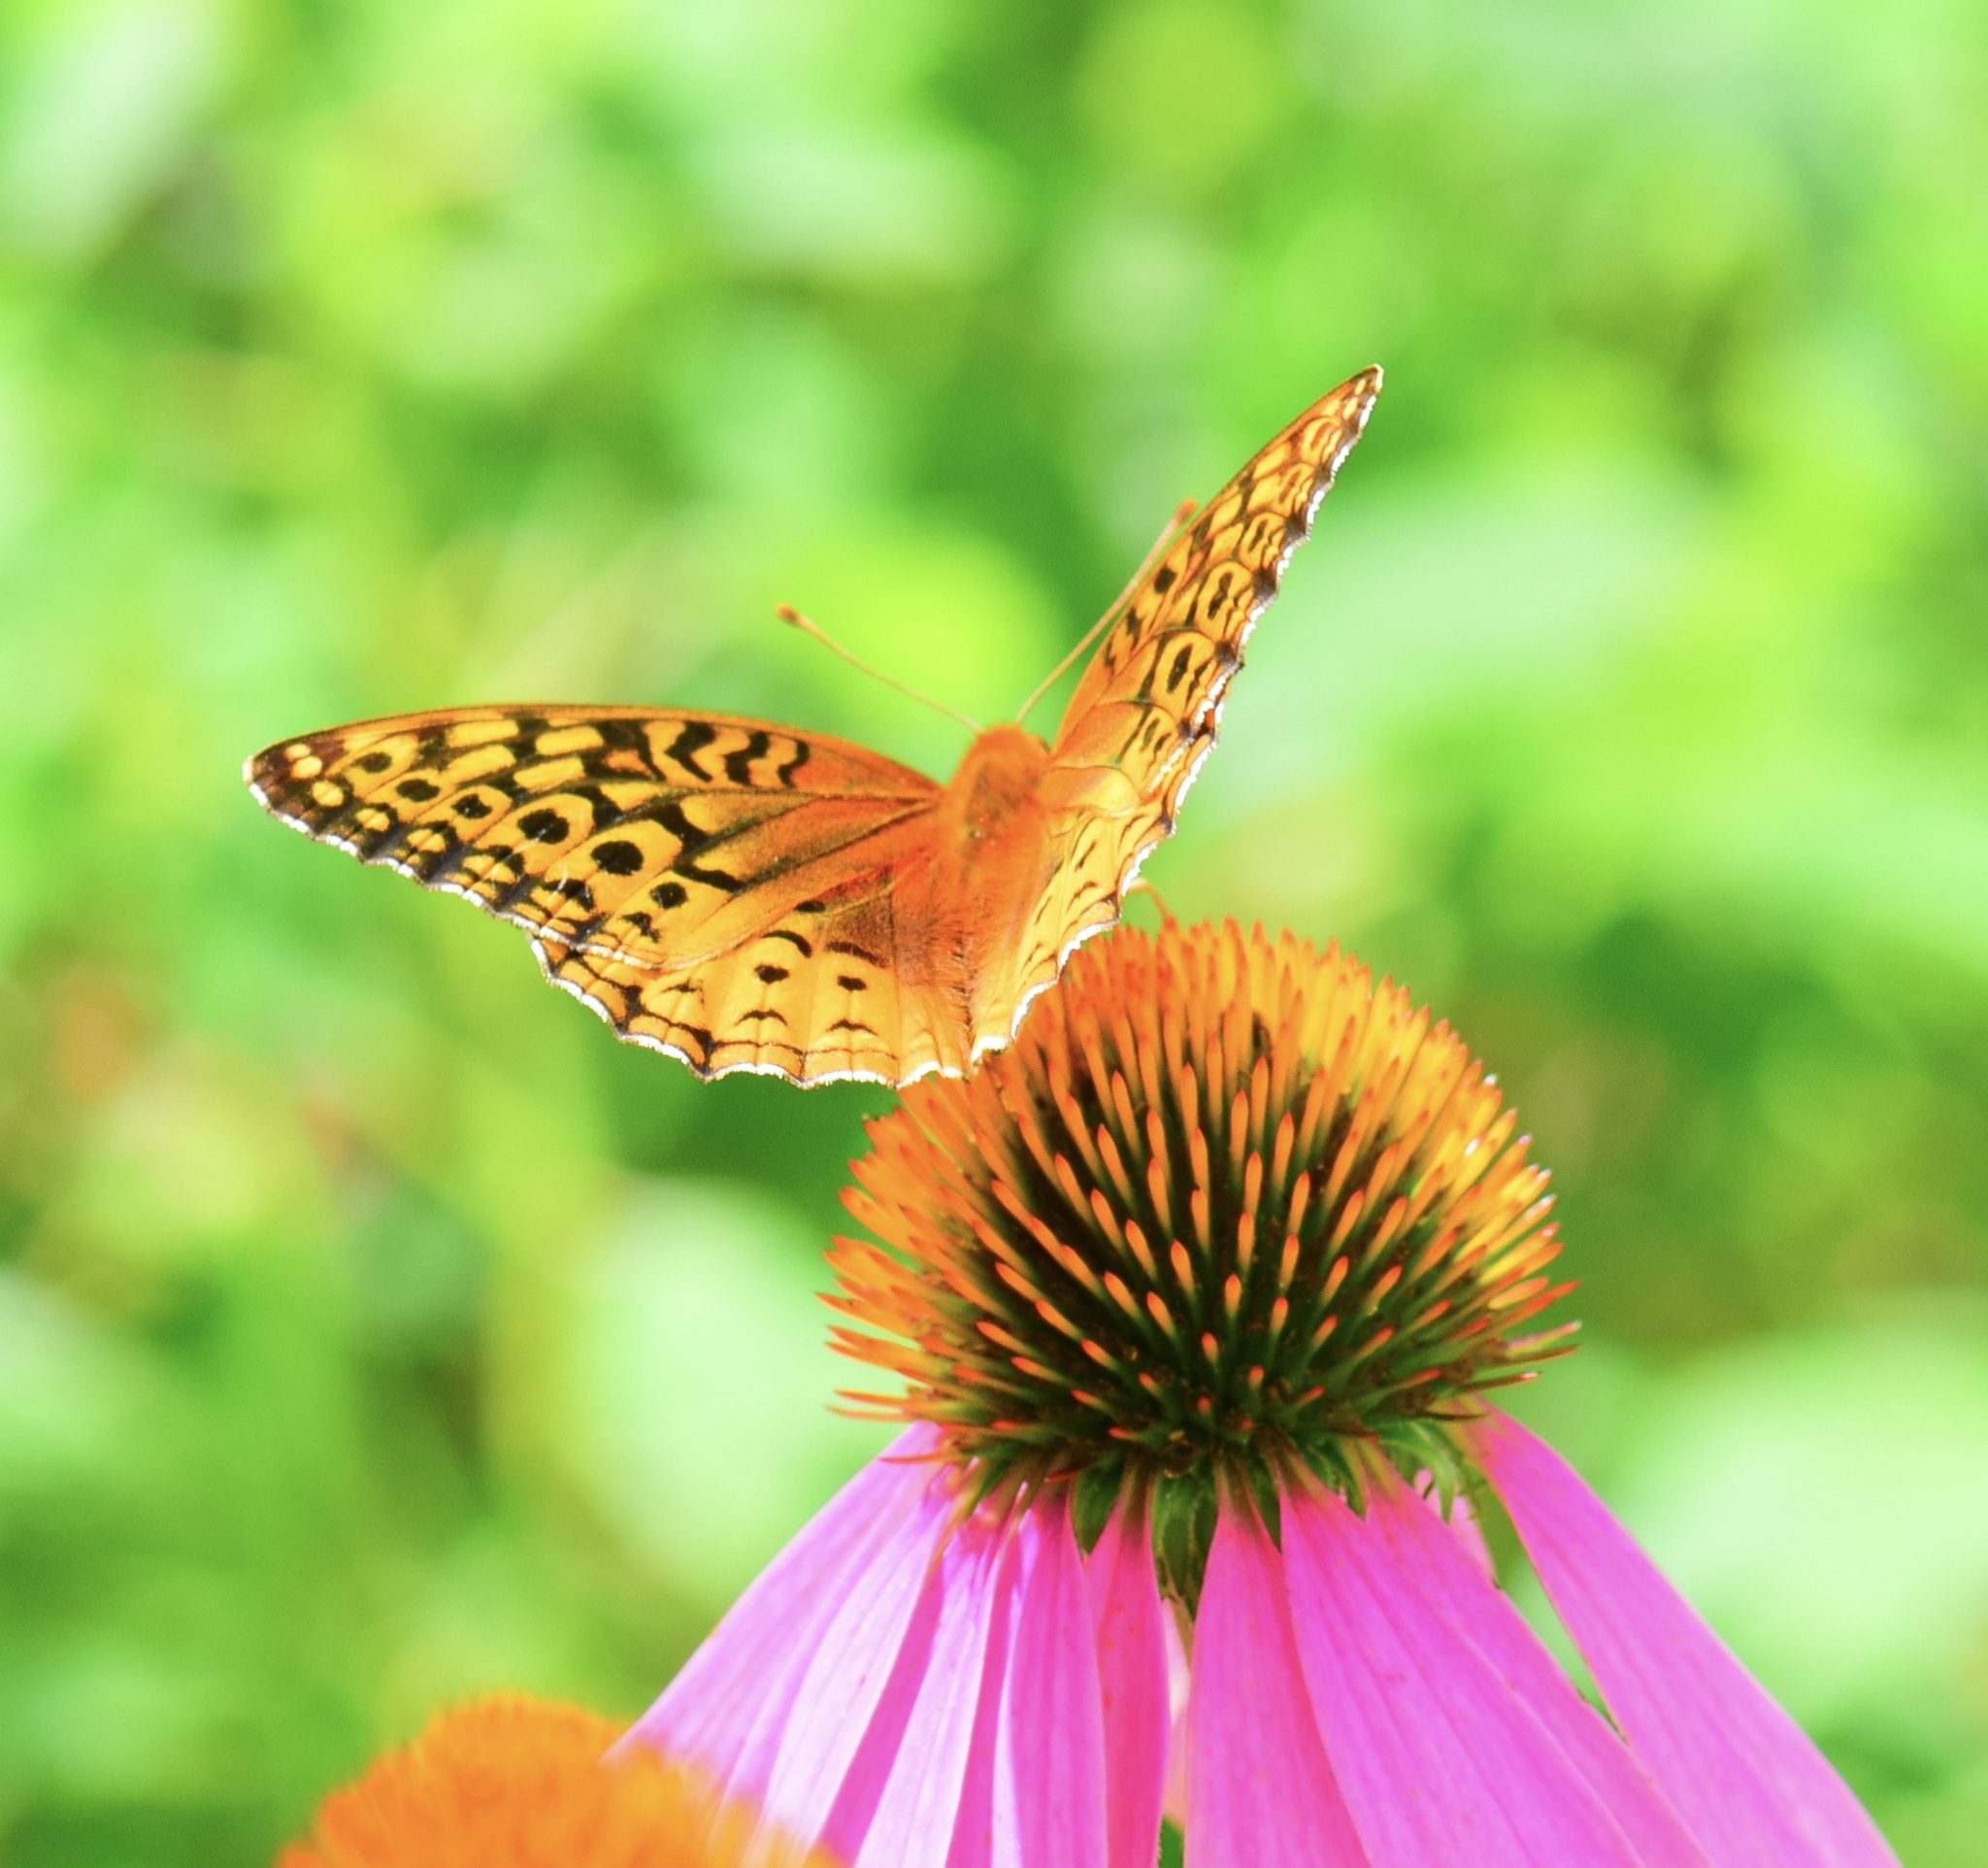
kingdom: Animalia
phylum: Arthropoda
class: Insecta
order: Lepidoptera
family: Nymphalidae
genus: Speyeria
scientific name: Speyeria cybele
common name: Great spangled fritillary
